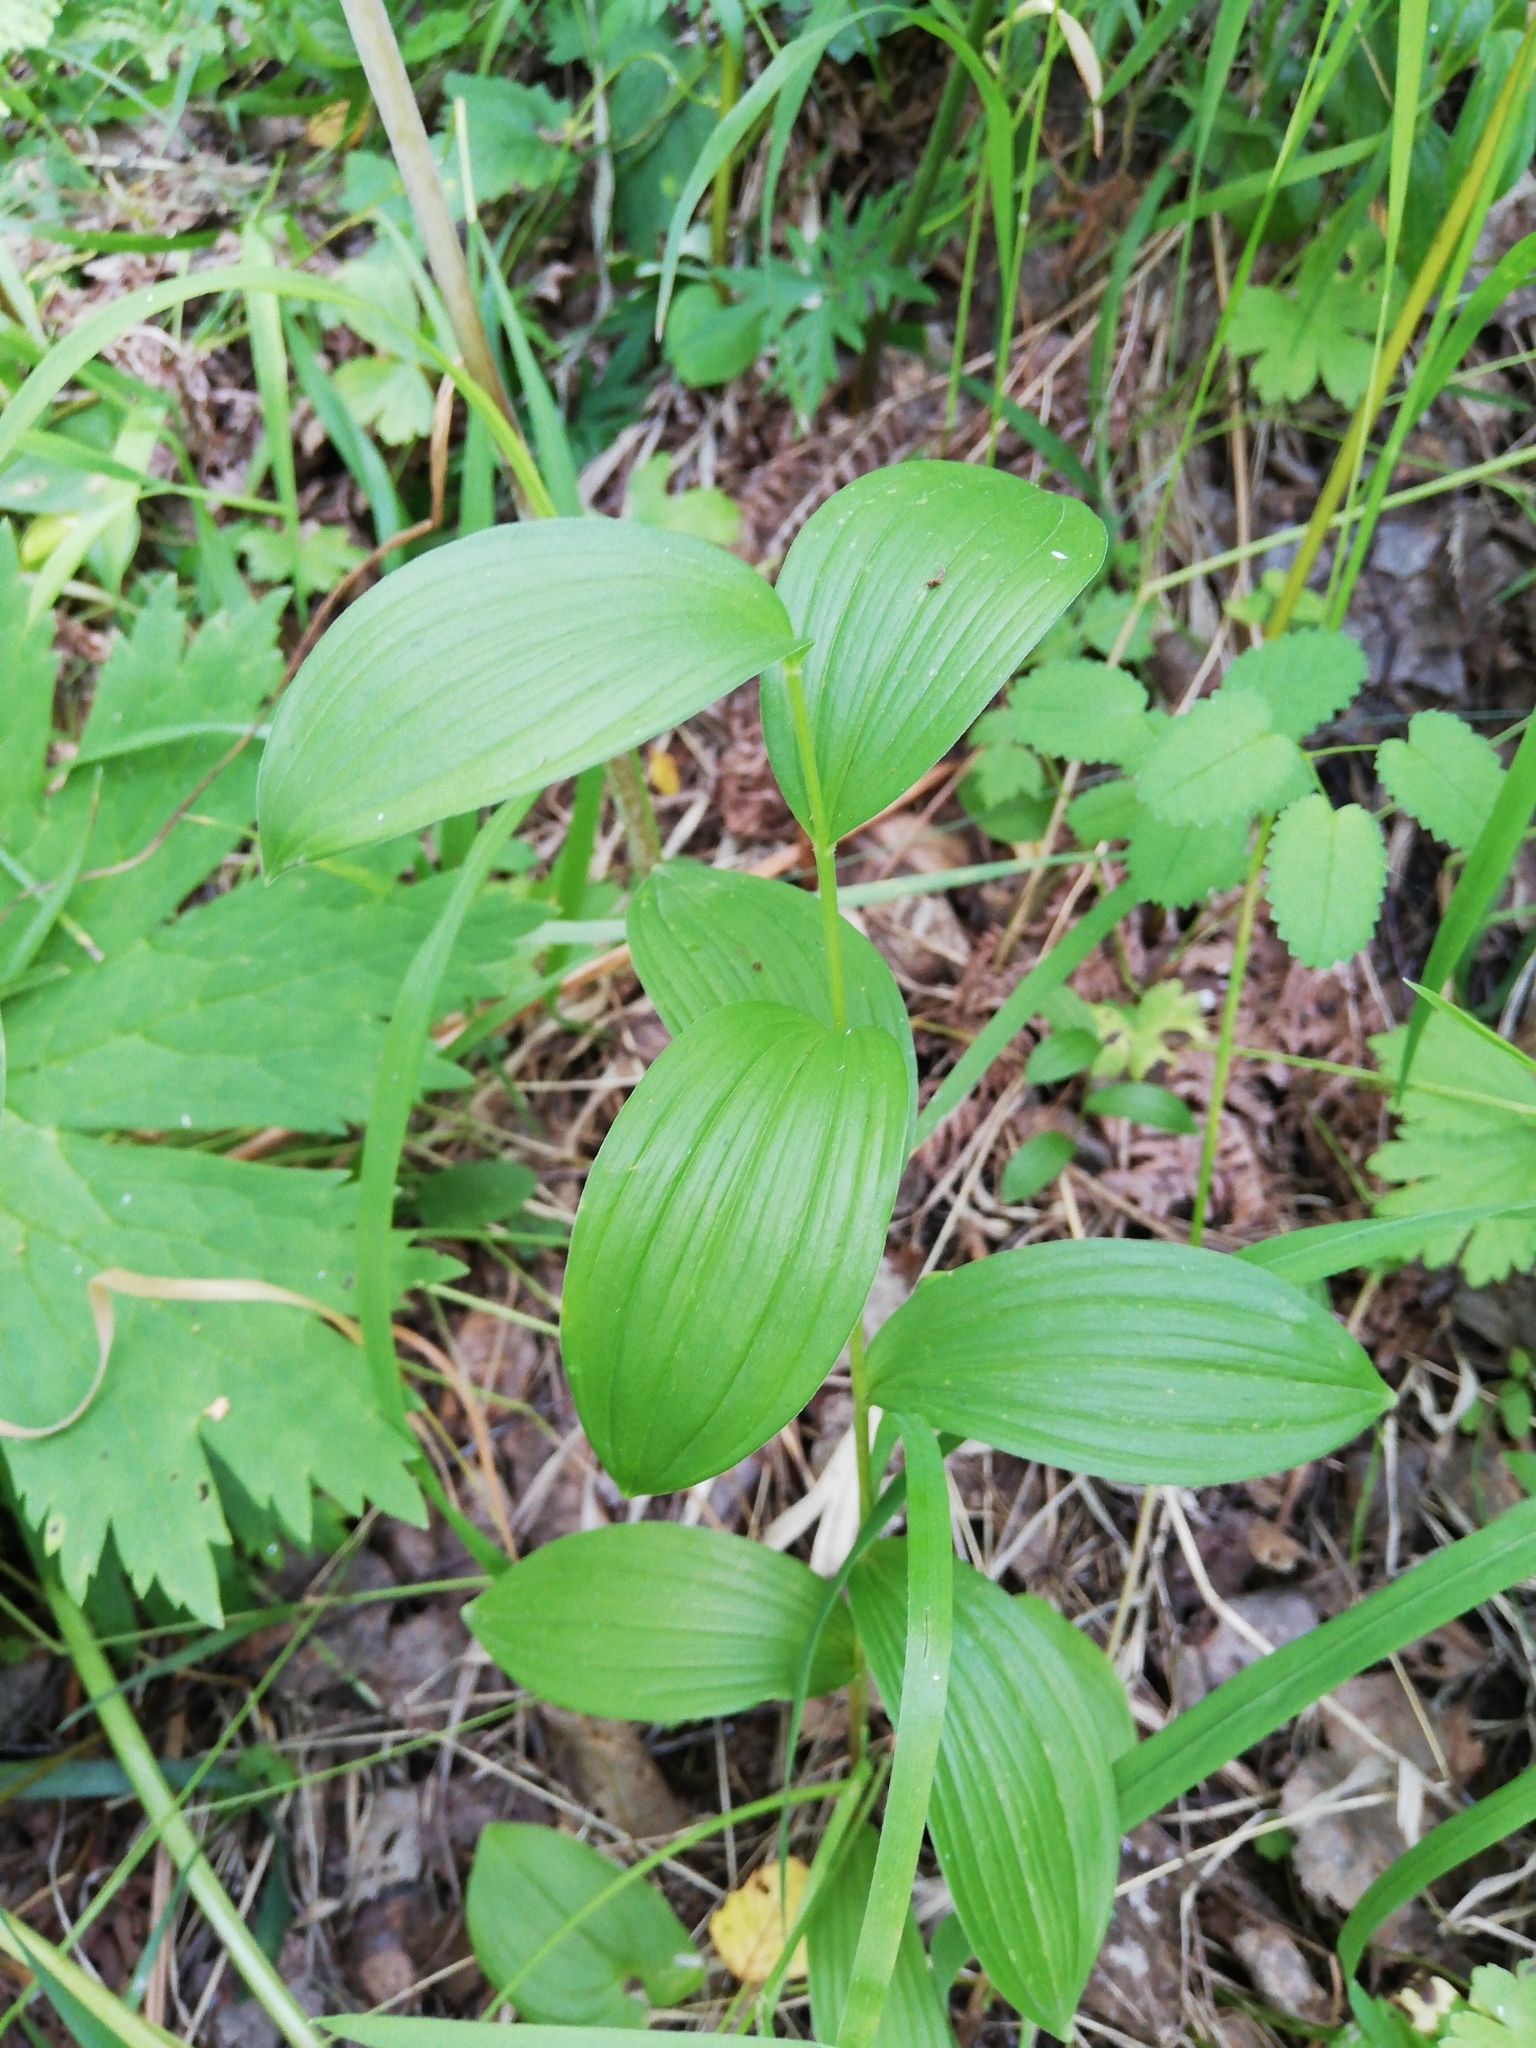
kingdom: Plantae
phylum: Tracheophyta
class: Liliopsida
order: Asparagales
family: Asparagaceae
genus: Polygonatum
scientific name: Polygonatum humile
